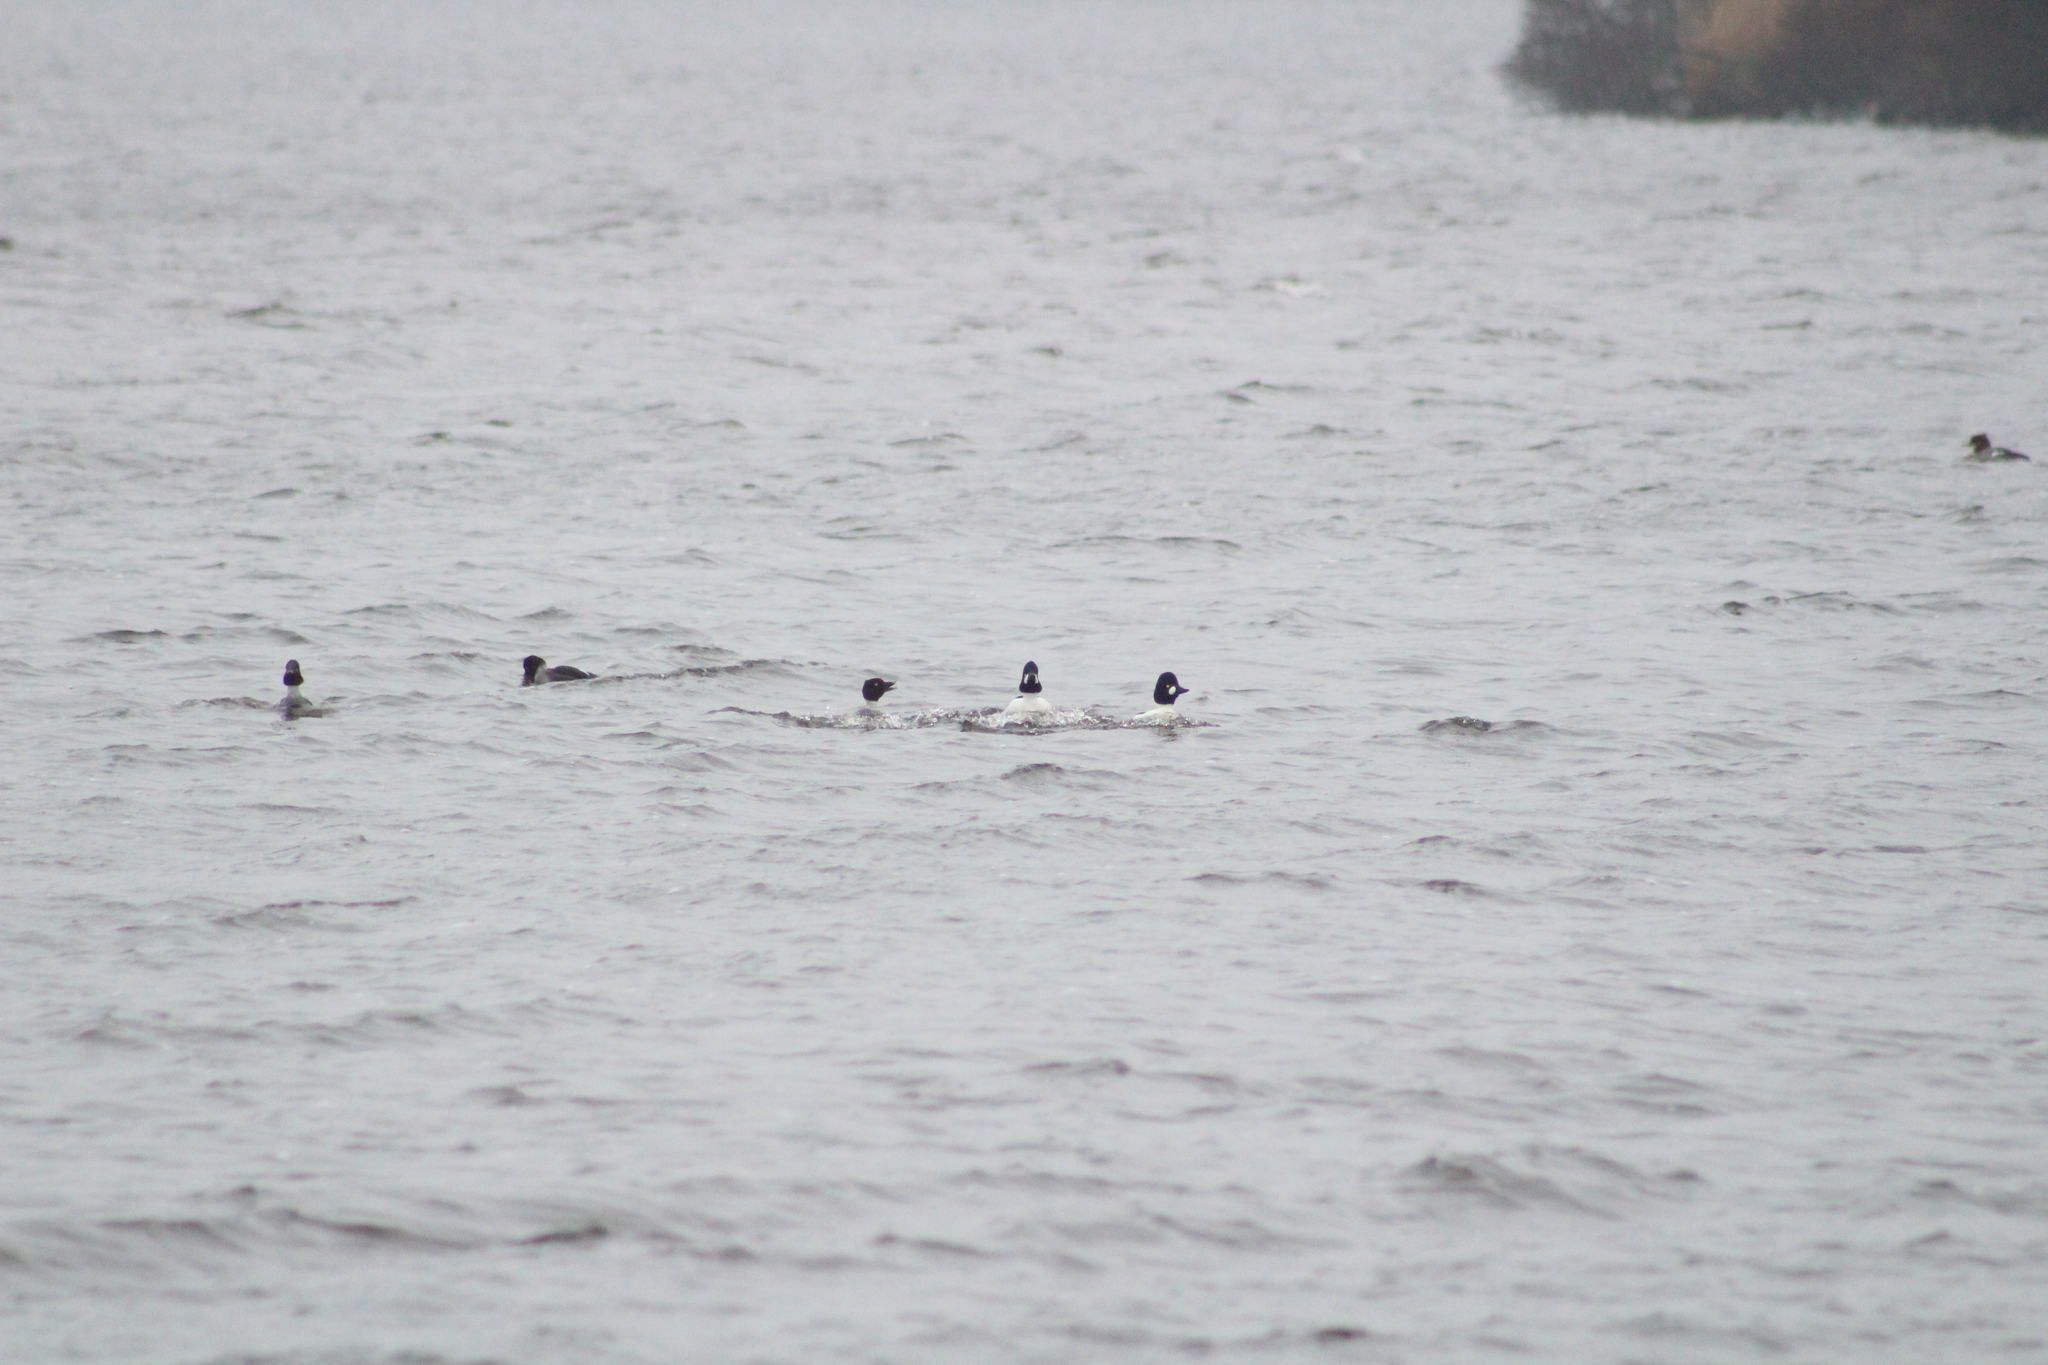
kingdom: Animalia
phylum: Chordata
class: Aves
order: Anseriformes
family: Anatidae
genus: Bucephala
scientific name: Bucephala clangula
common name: Common goldeneye
